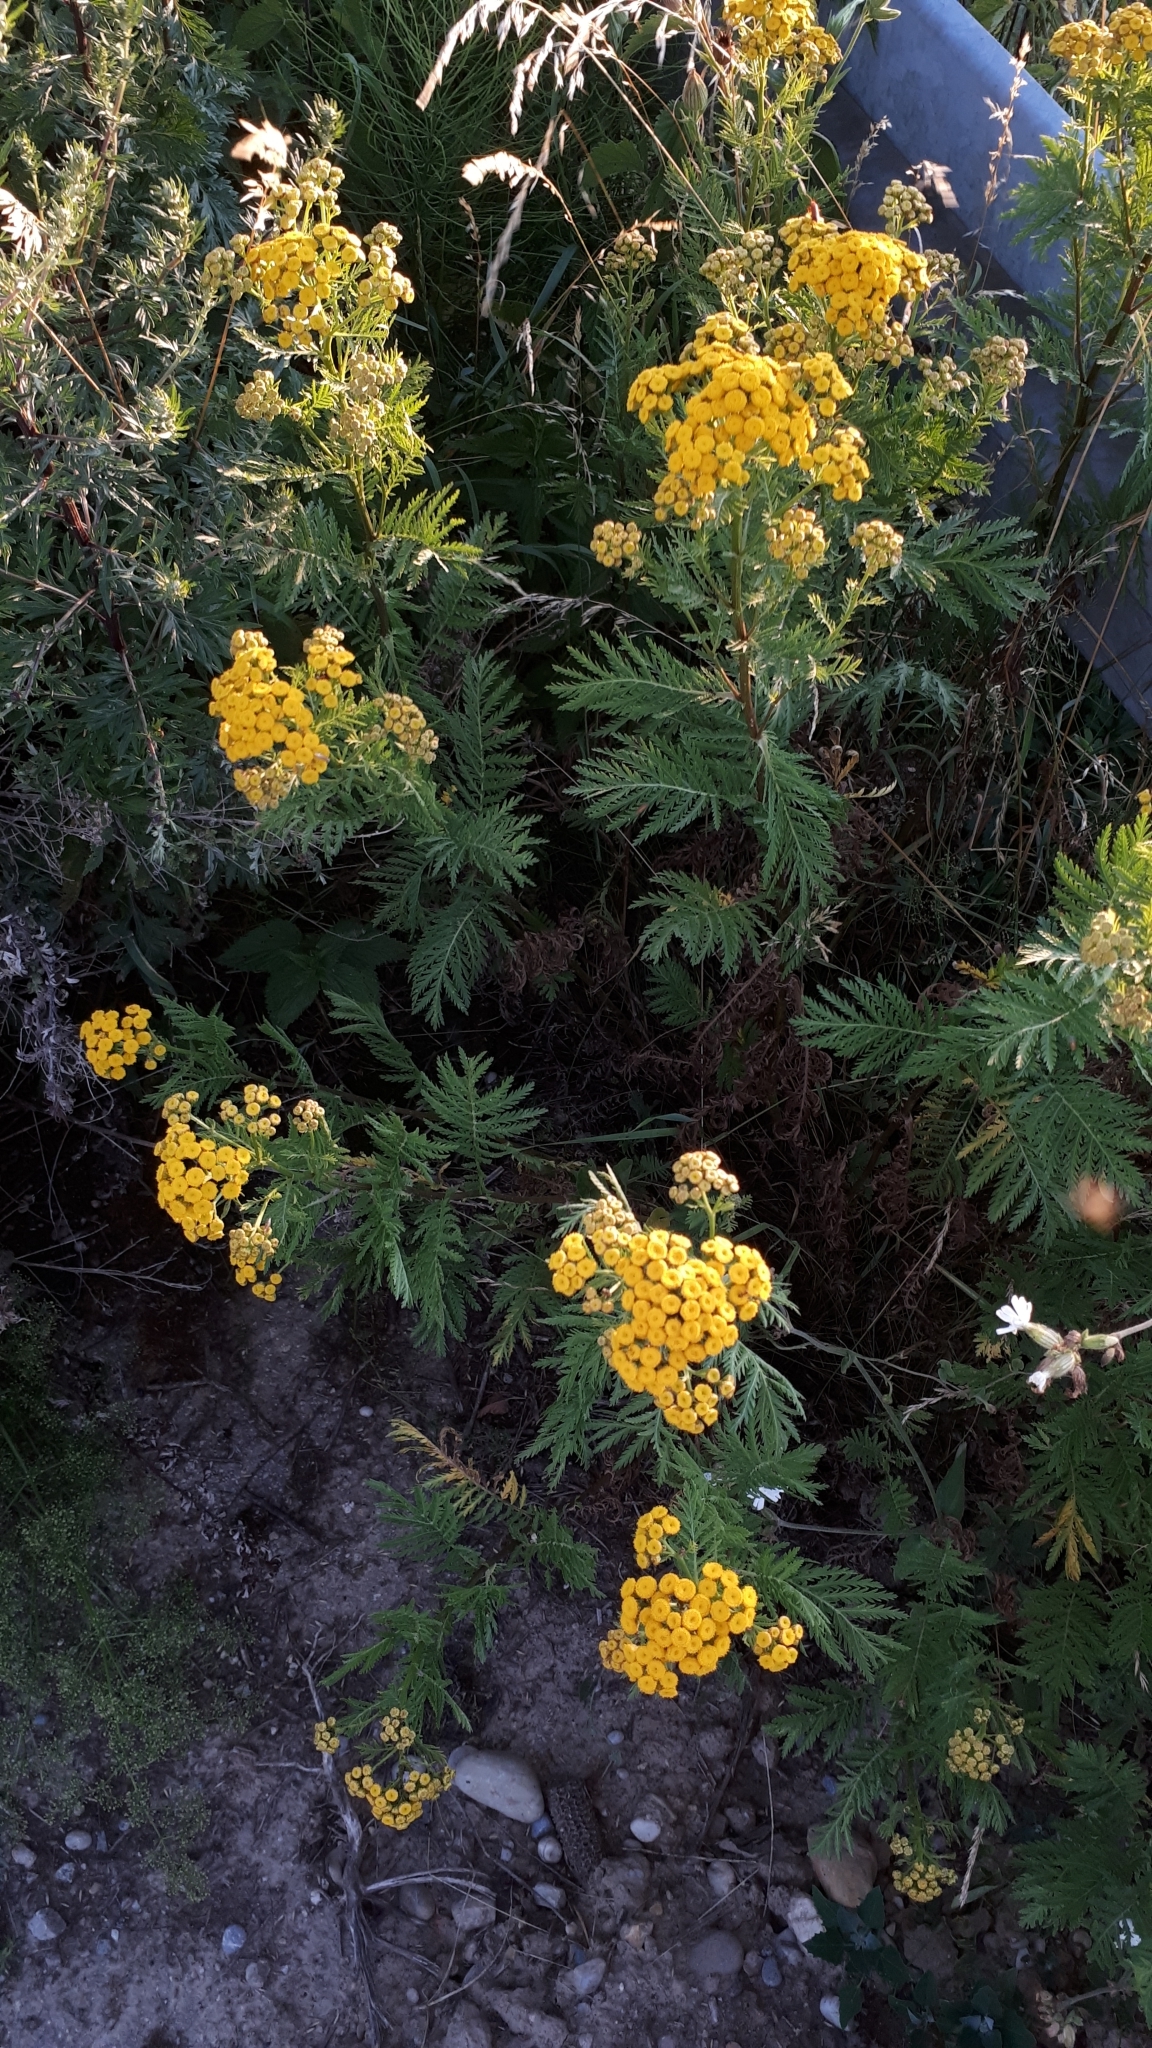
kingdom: Plantae
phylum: Tracheophyta
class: Magnoliopsida
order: Asterales
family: Asteraceae
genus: Tanacetum
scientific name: Tanacetum vulgare
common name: Common tansy
